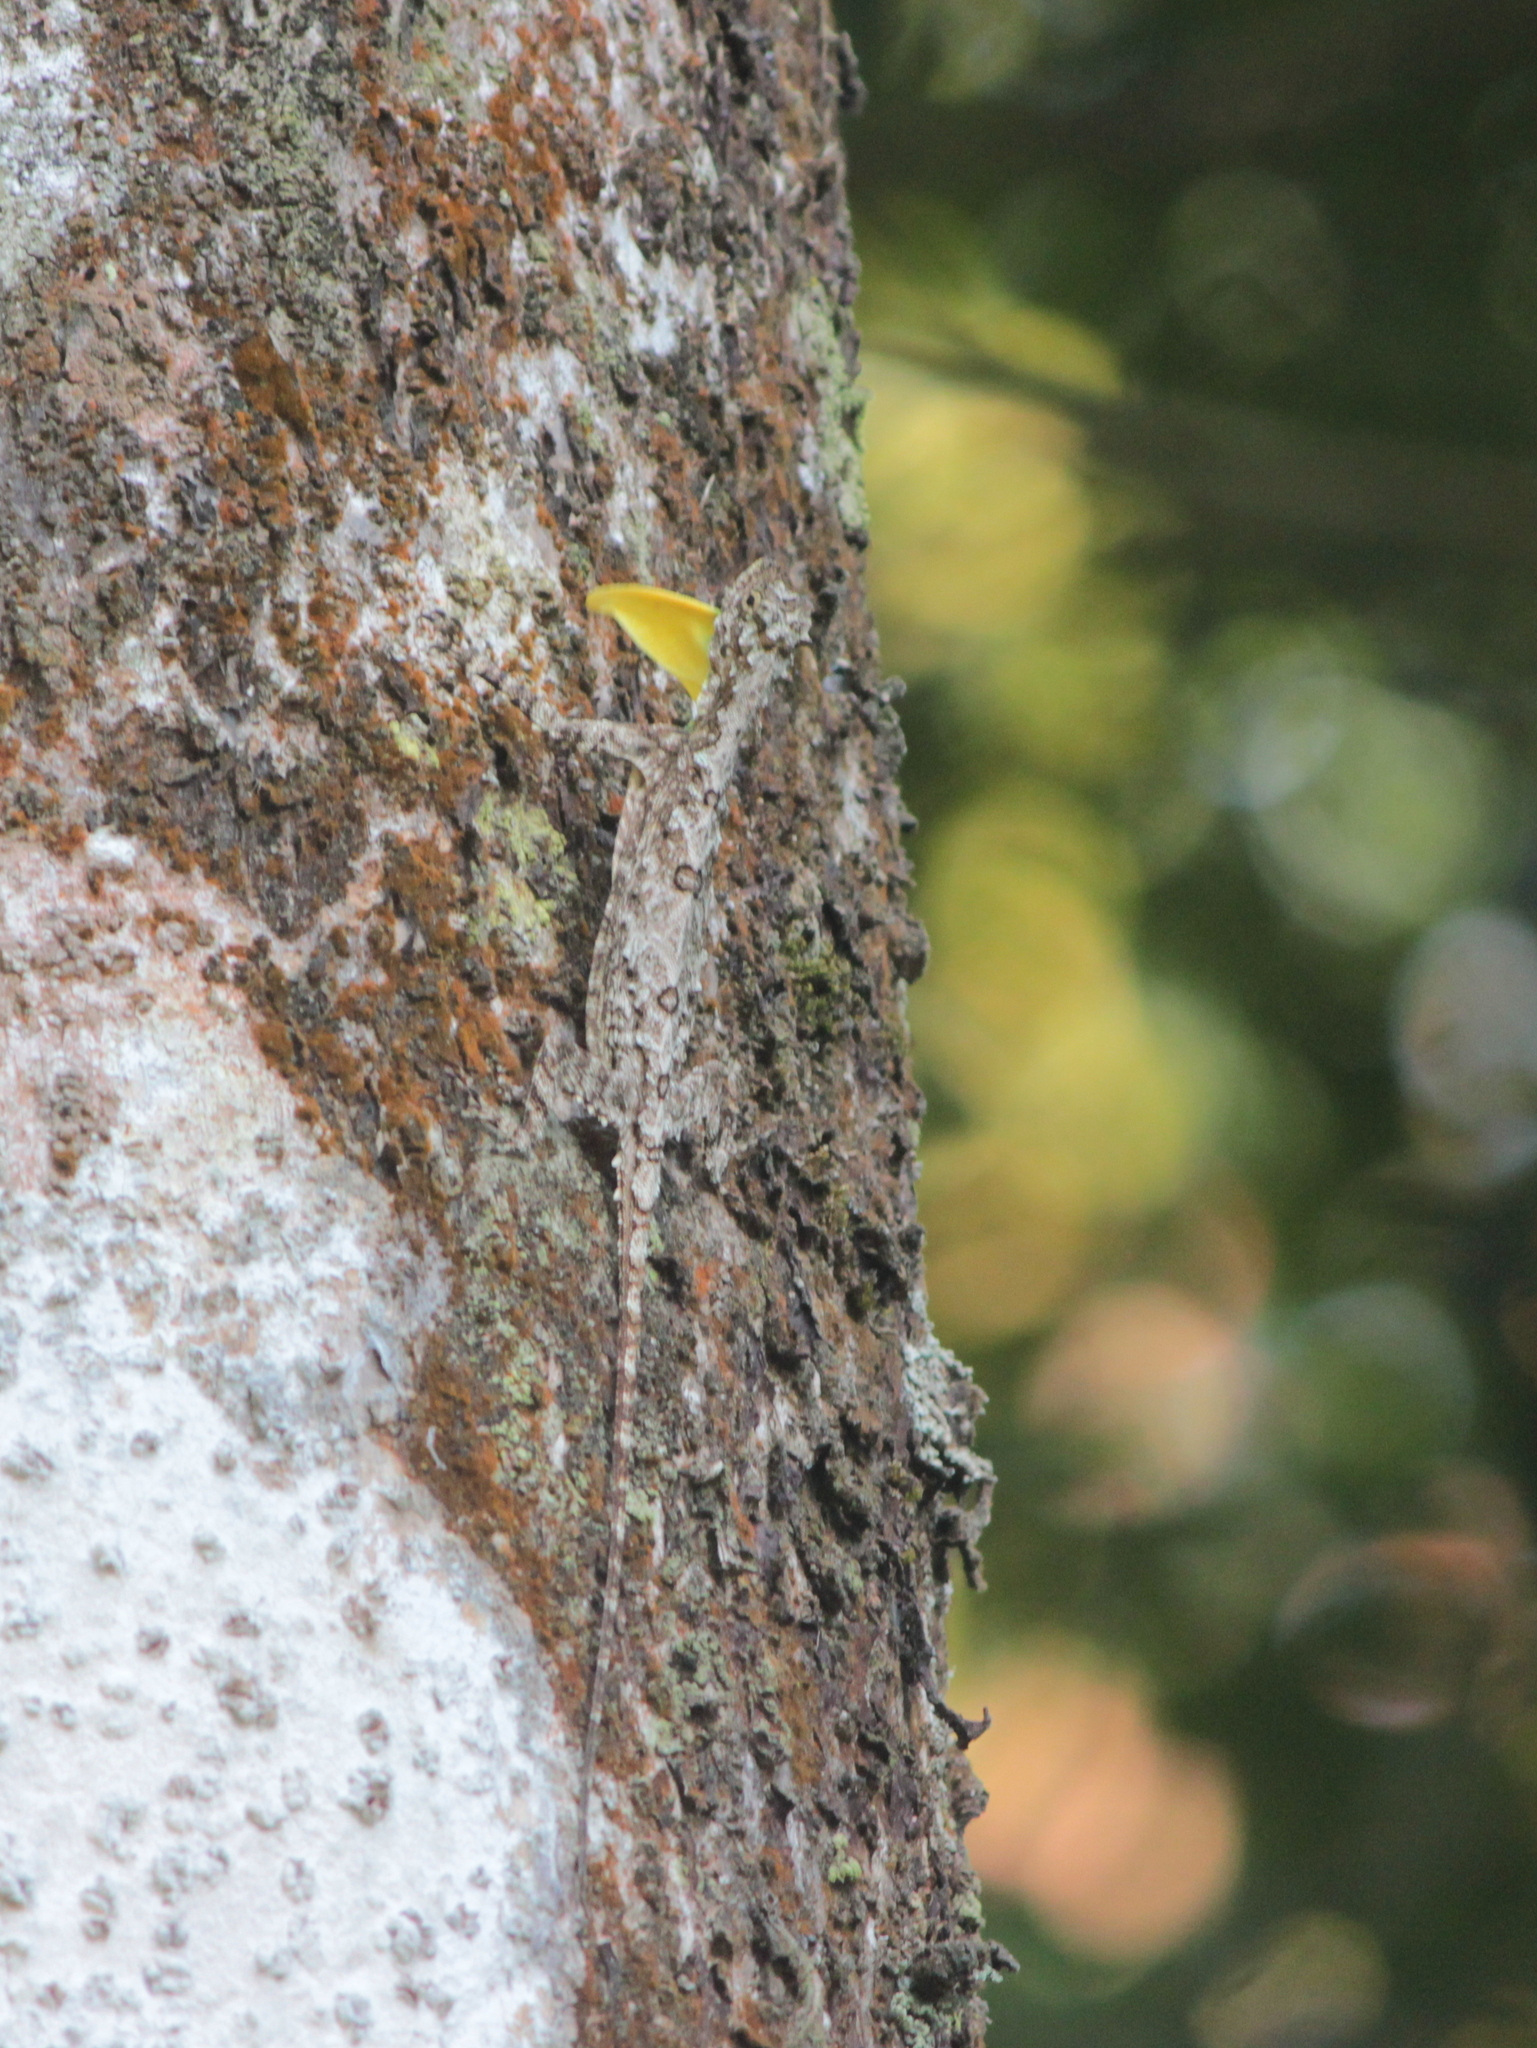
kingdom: Animalia
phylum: Chordata
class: Squamata
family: Agamidae
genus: Draco
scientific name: Draco dussumieri
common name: Southern flying lizard
